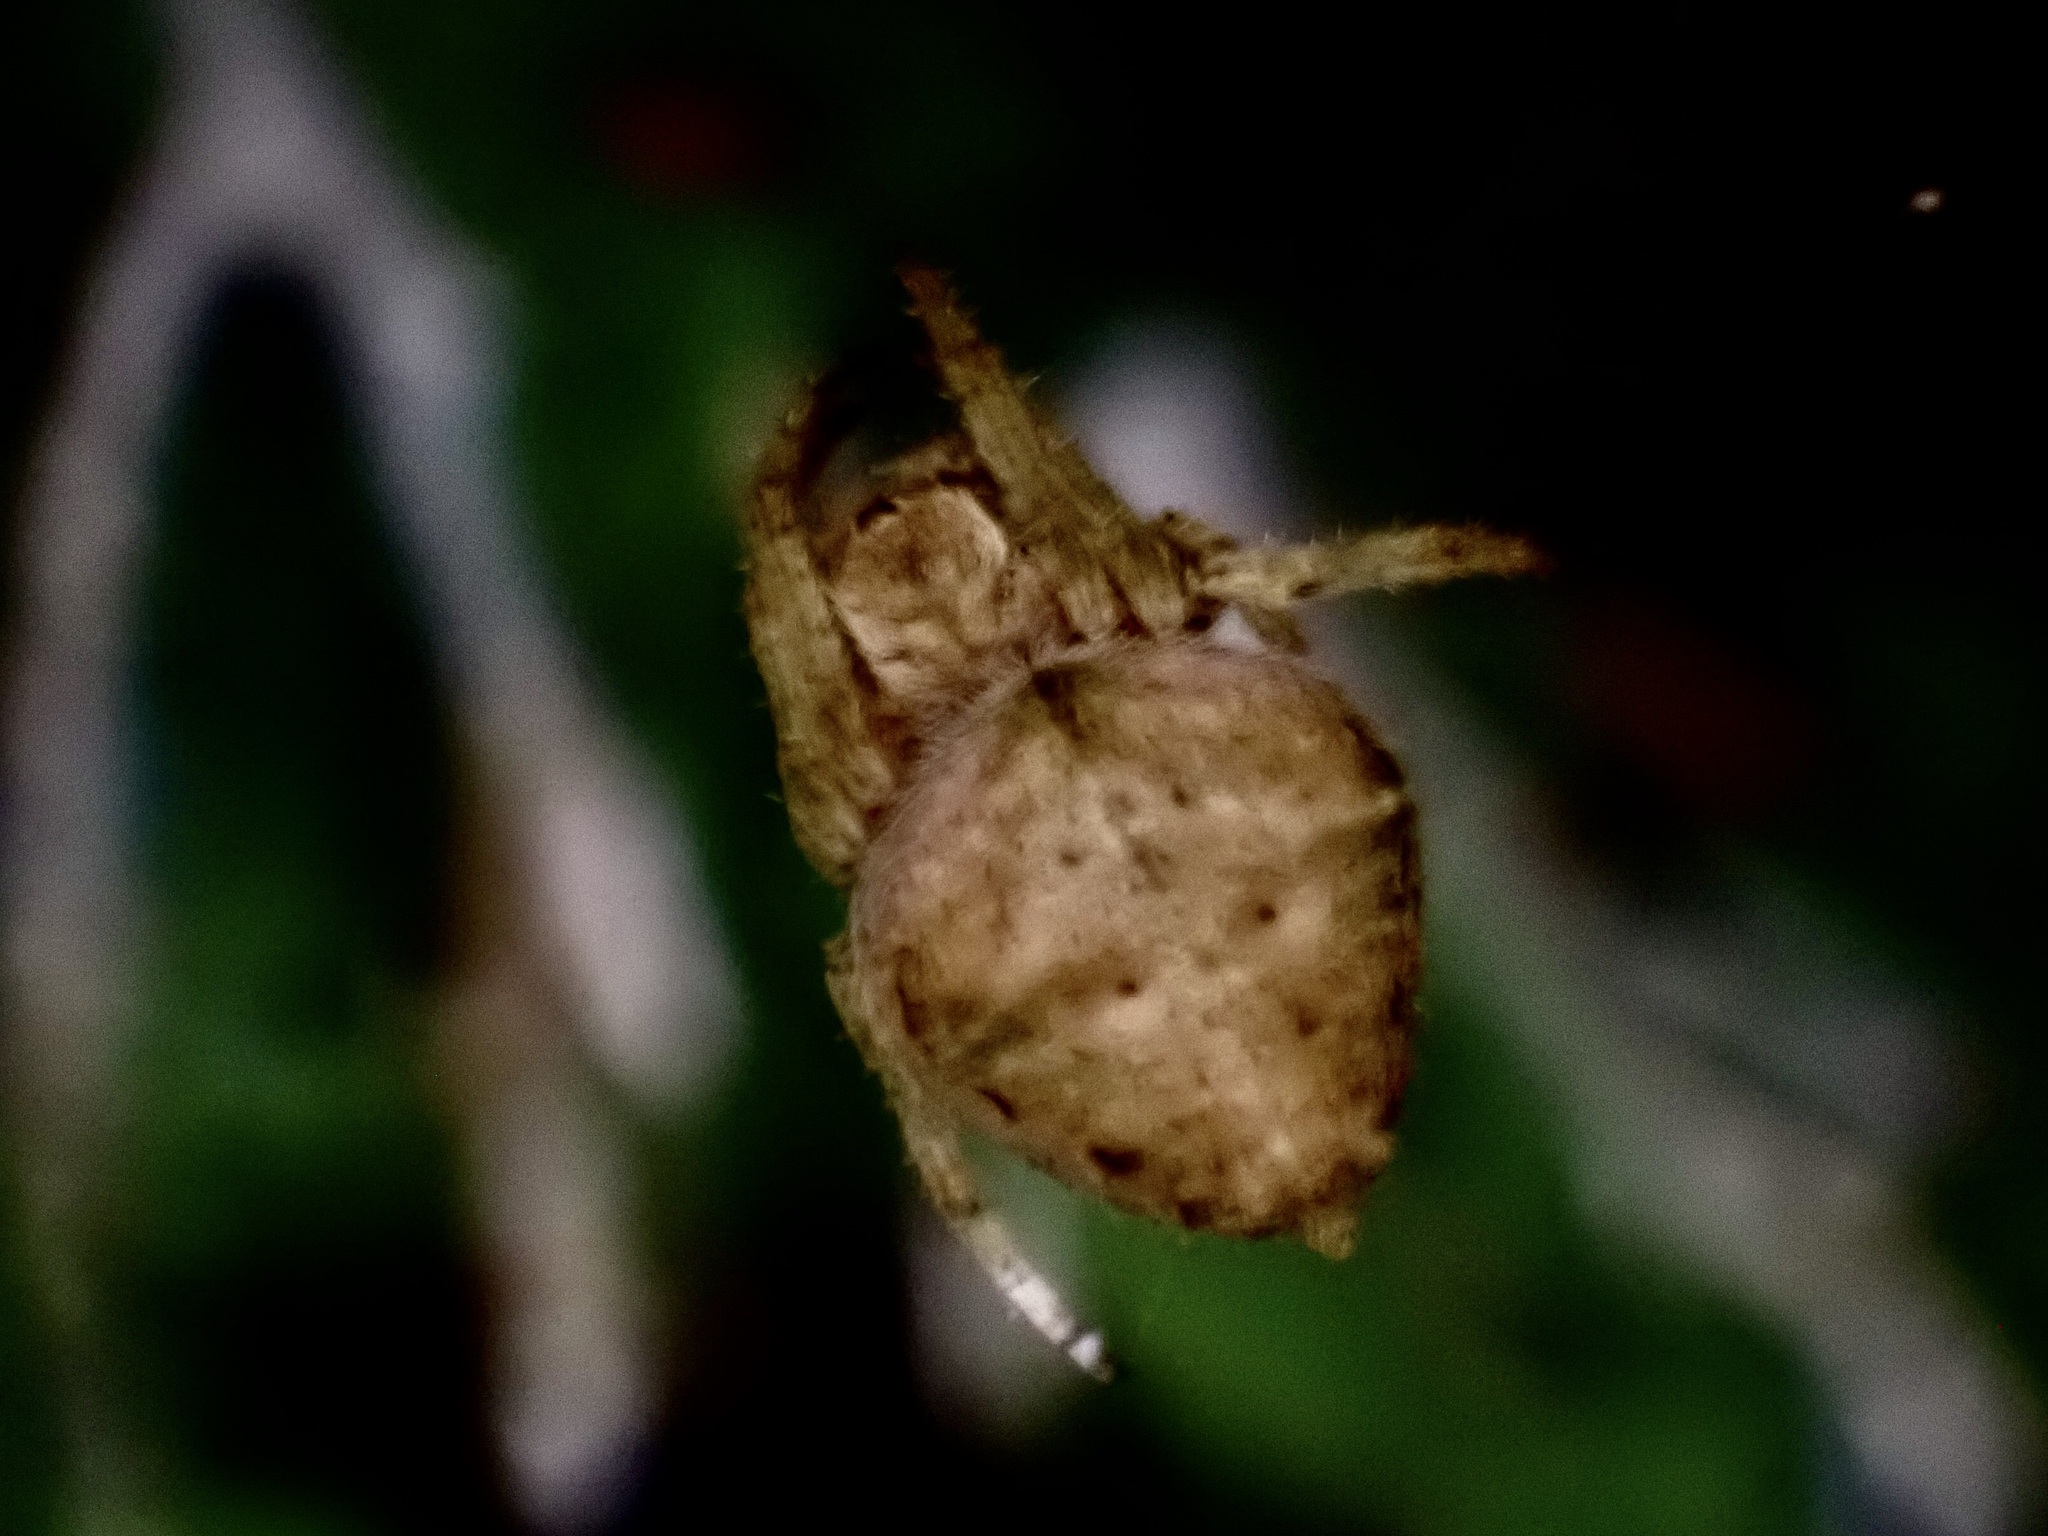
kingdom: Animalia
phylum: Arthropoda
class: Arachnida
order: Araneae
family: Araneidae
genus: Eriophora
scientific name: Eriophora pustulosa
